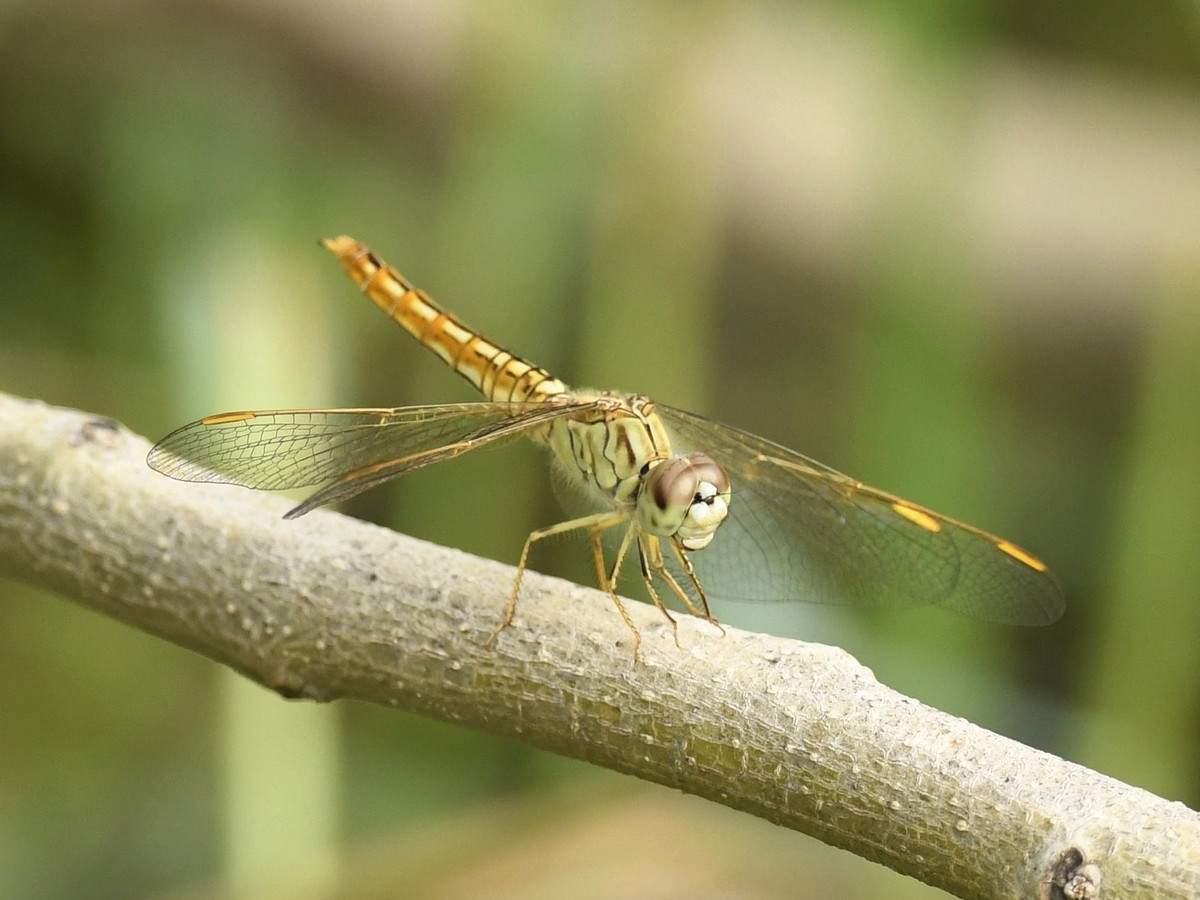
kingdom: Animalia
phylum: Arthropoda
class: Insecta
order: Odonata
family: Libellulidae
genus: Brachythemis
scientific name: Brachythemis contaminata
